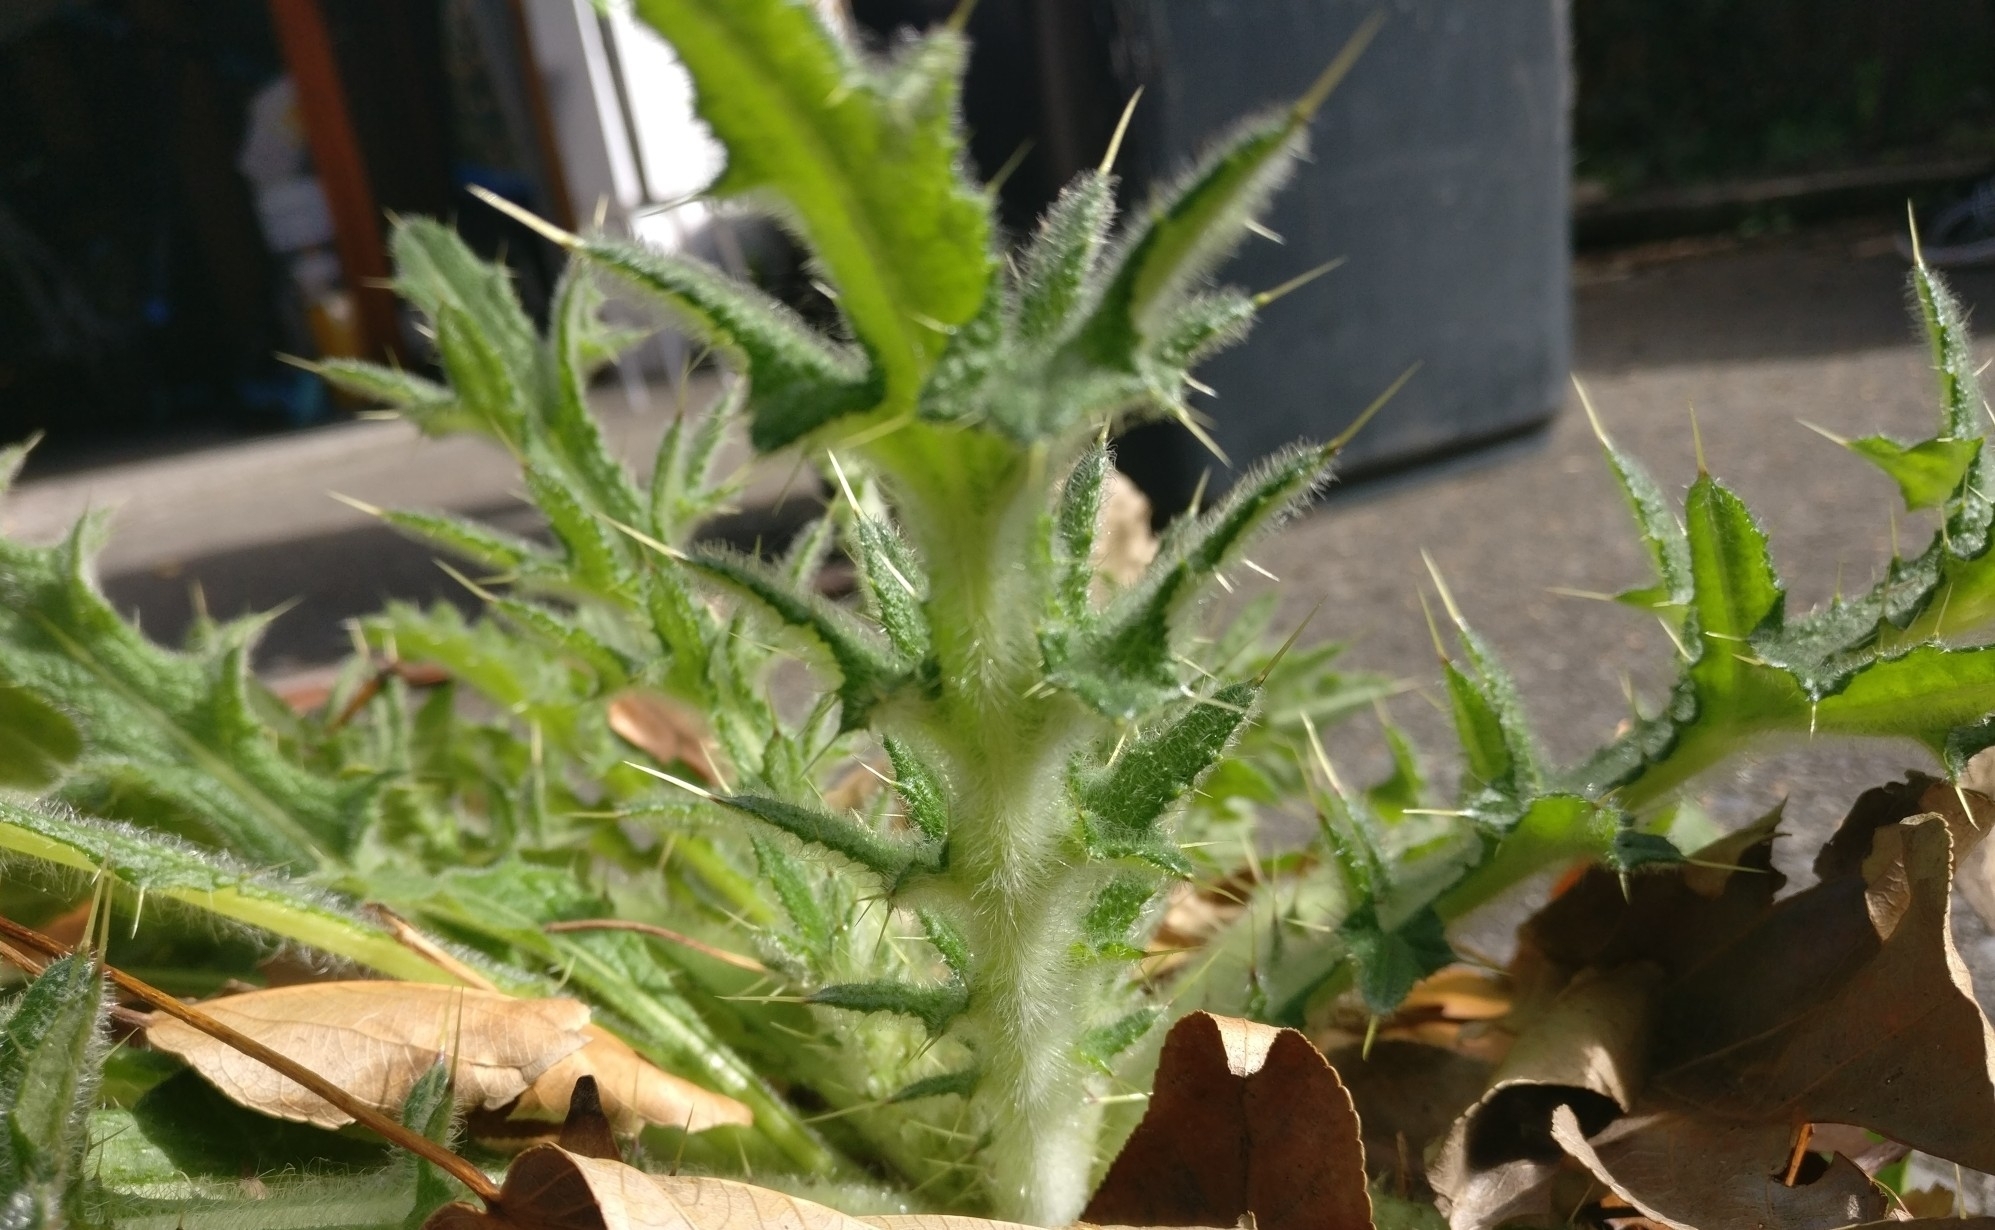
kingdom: Plantae
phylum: Tracheophyta
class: Magnoliopsida
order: Asterales
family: Asteraceae
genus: Cirsium
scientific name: Cirsium vulgare
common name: Bull thistle
